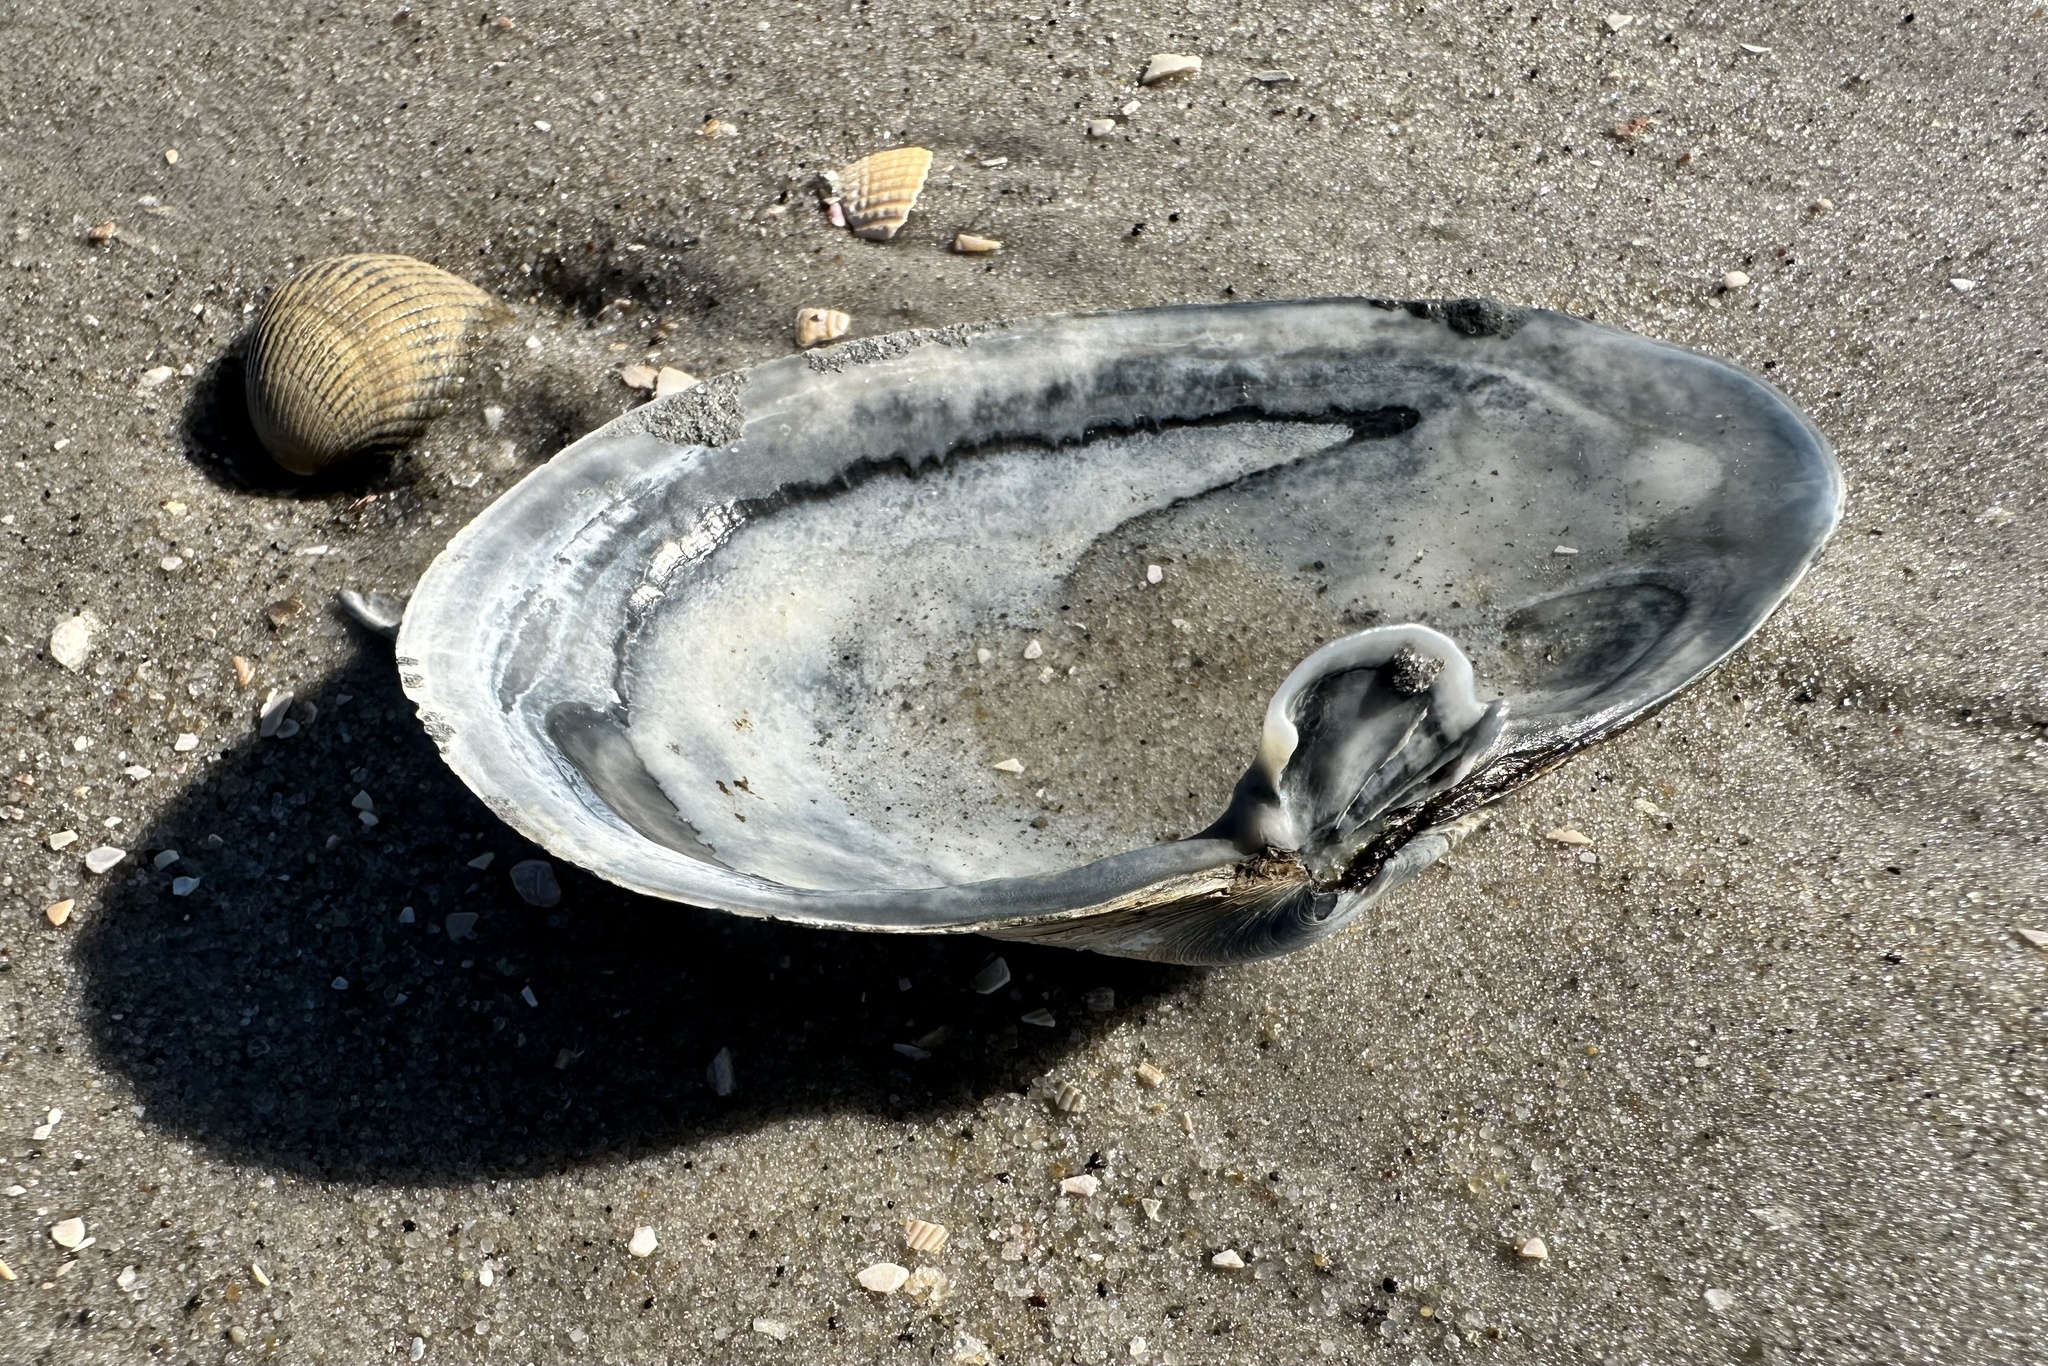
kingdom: Animalia
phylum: Mollusca
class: Bivalvia
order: Myida
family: Myidae
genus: Mya
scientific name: Mya arenaria
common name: Soft-shelled clam
